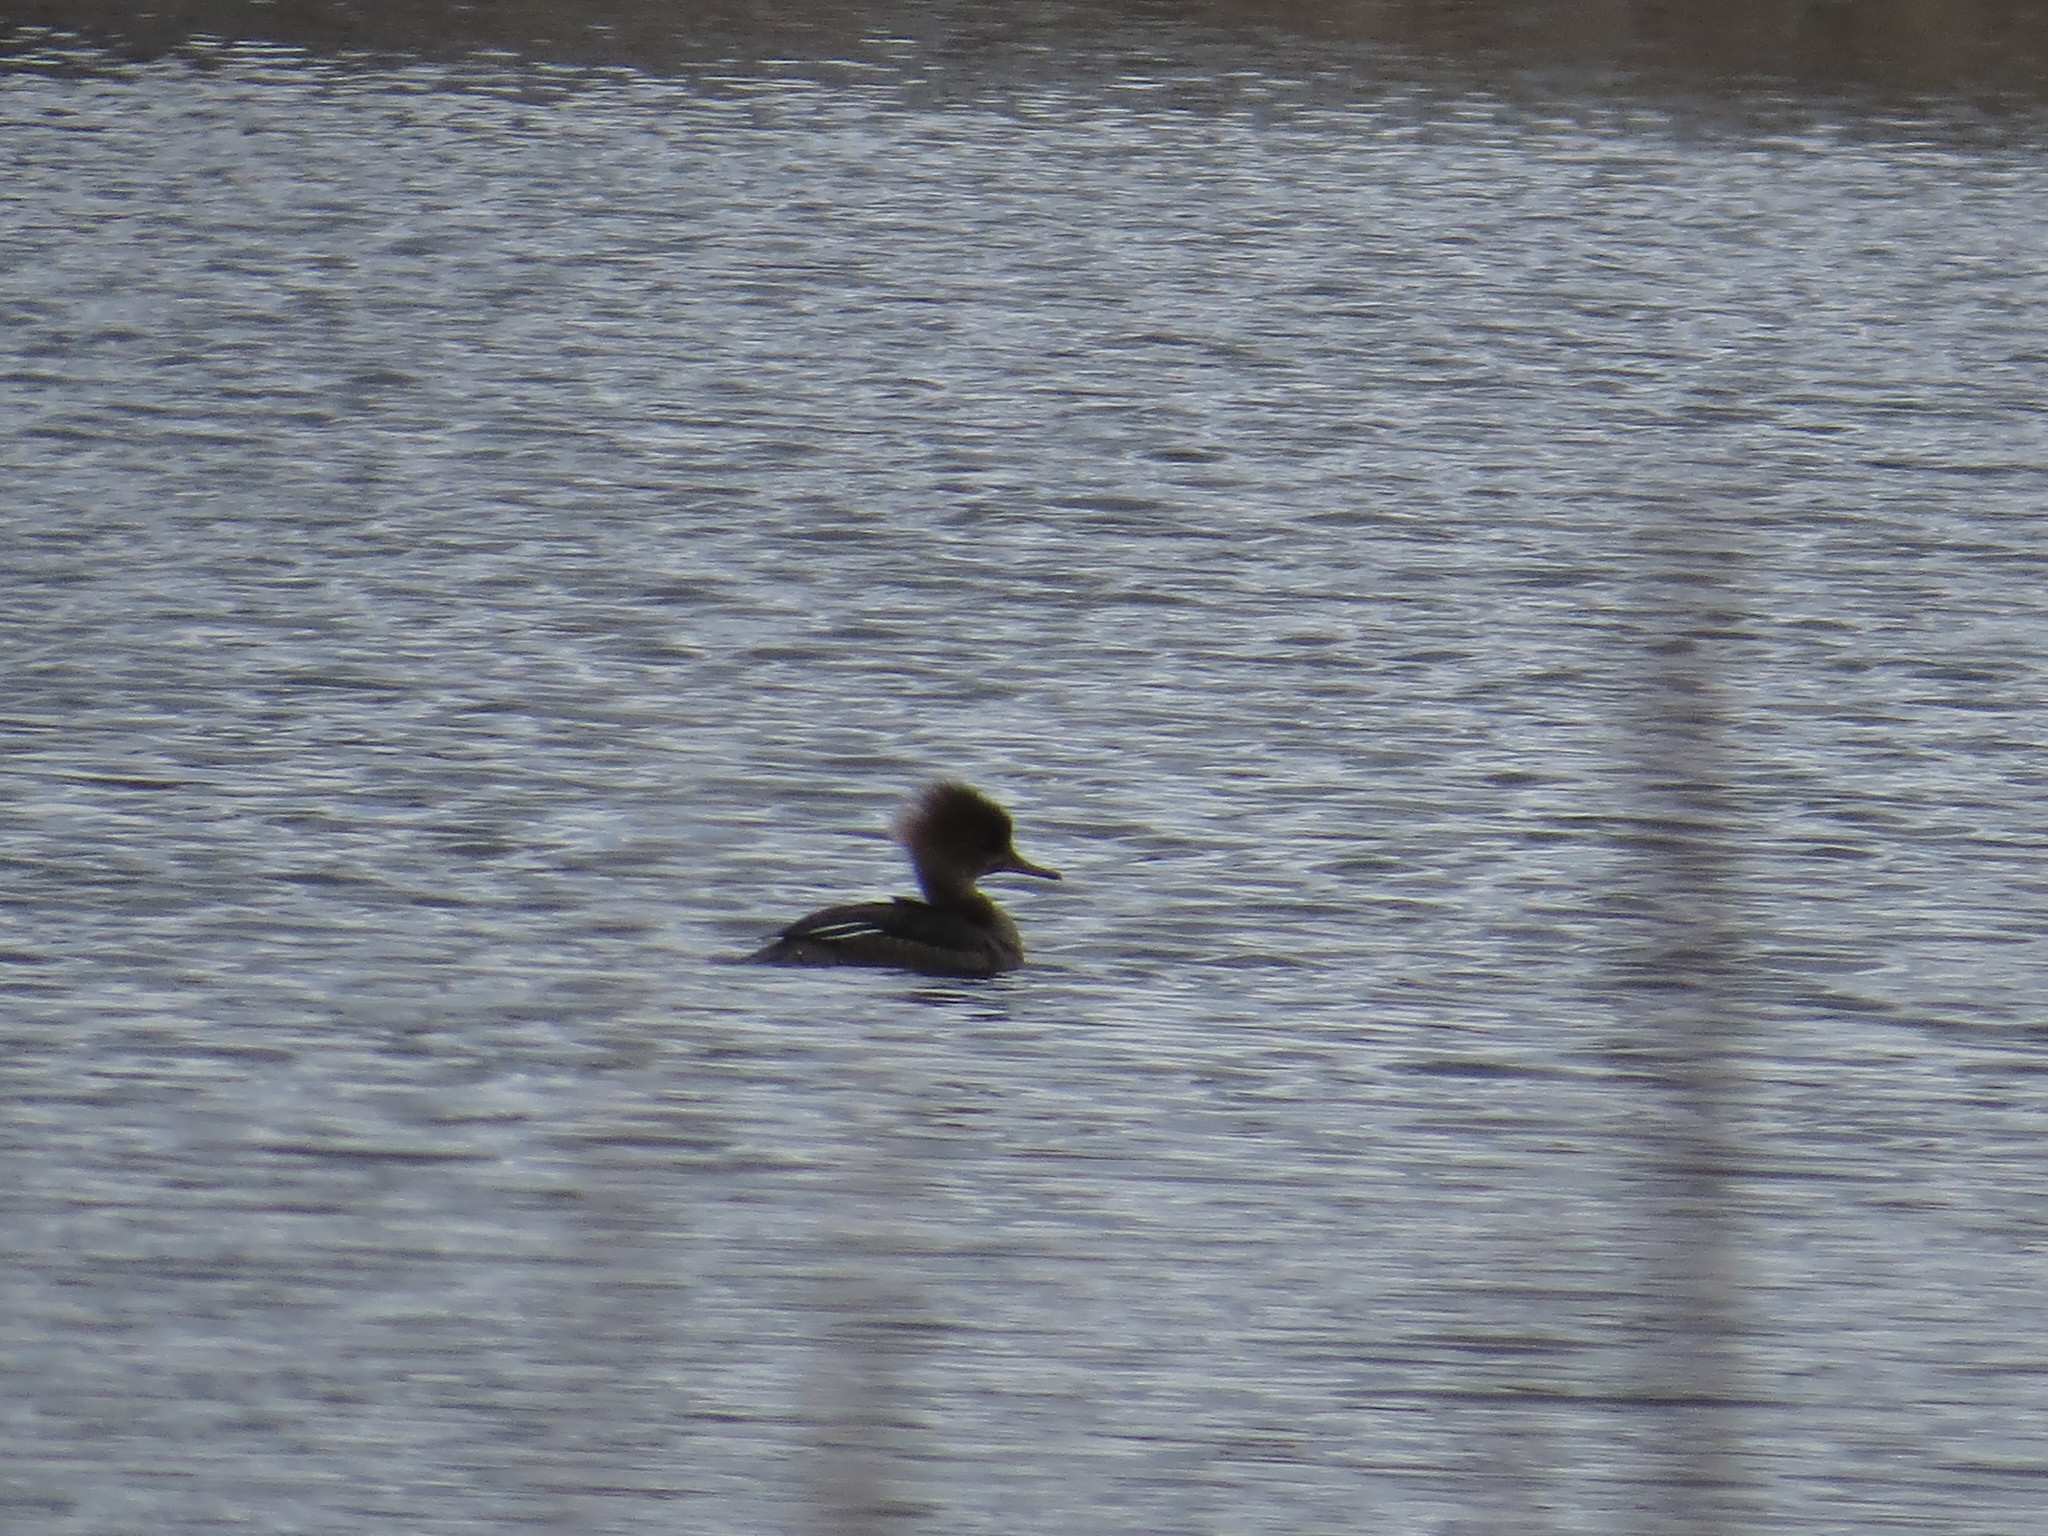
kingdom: Animalia
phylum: Chordata
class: Aves
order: Anseriformes
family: Anatidae
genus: Lophodytes
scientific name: Lophodytes cucullatus
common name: Hooded merganser
